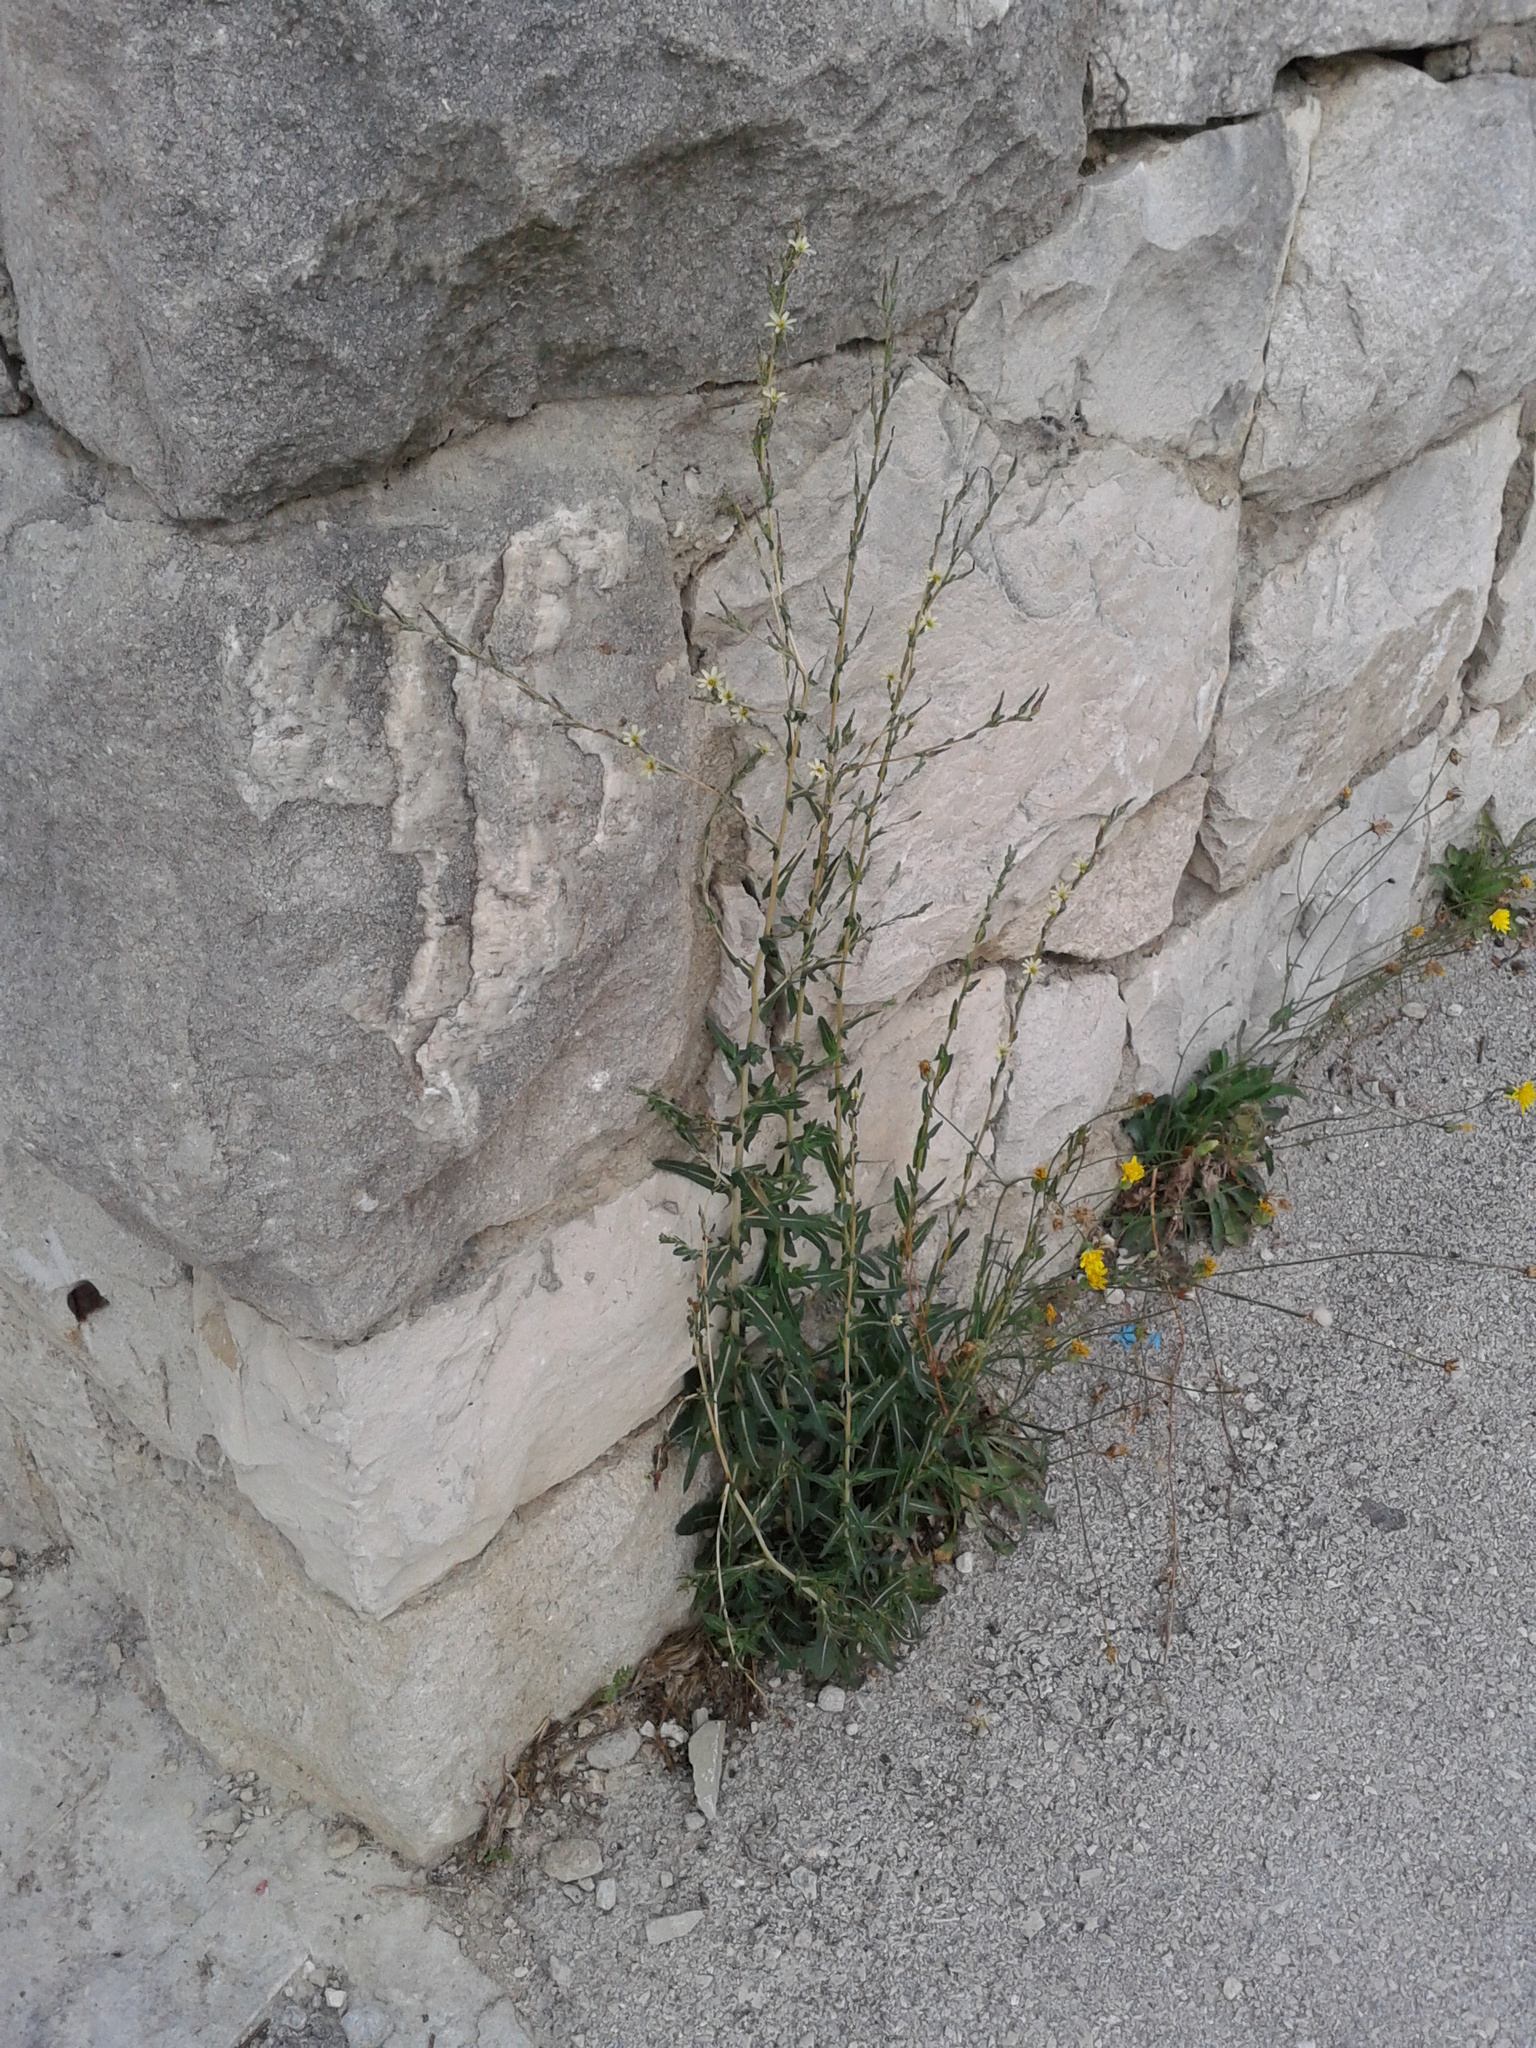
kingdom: Plantae
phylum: Tracheophyta
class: Magnoliopsida
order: Asterales
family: Asteraceae
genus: Lactuca
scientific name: Lactuca saligna
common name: Wild lettuce
